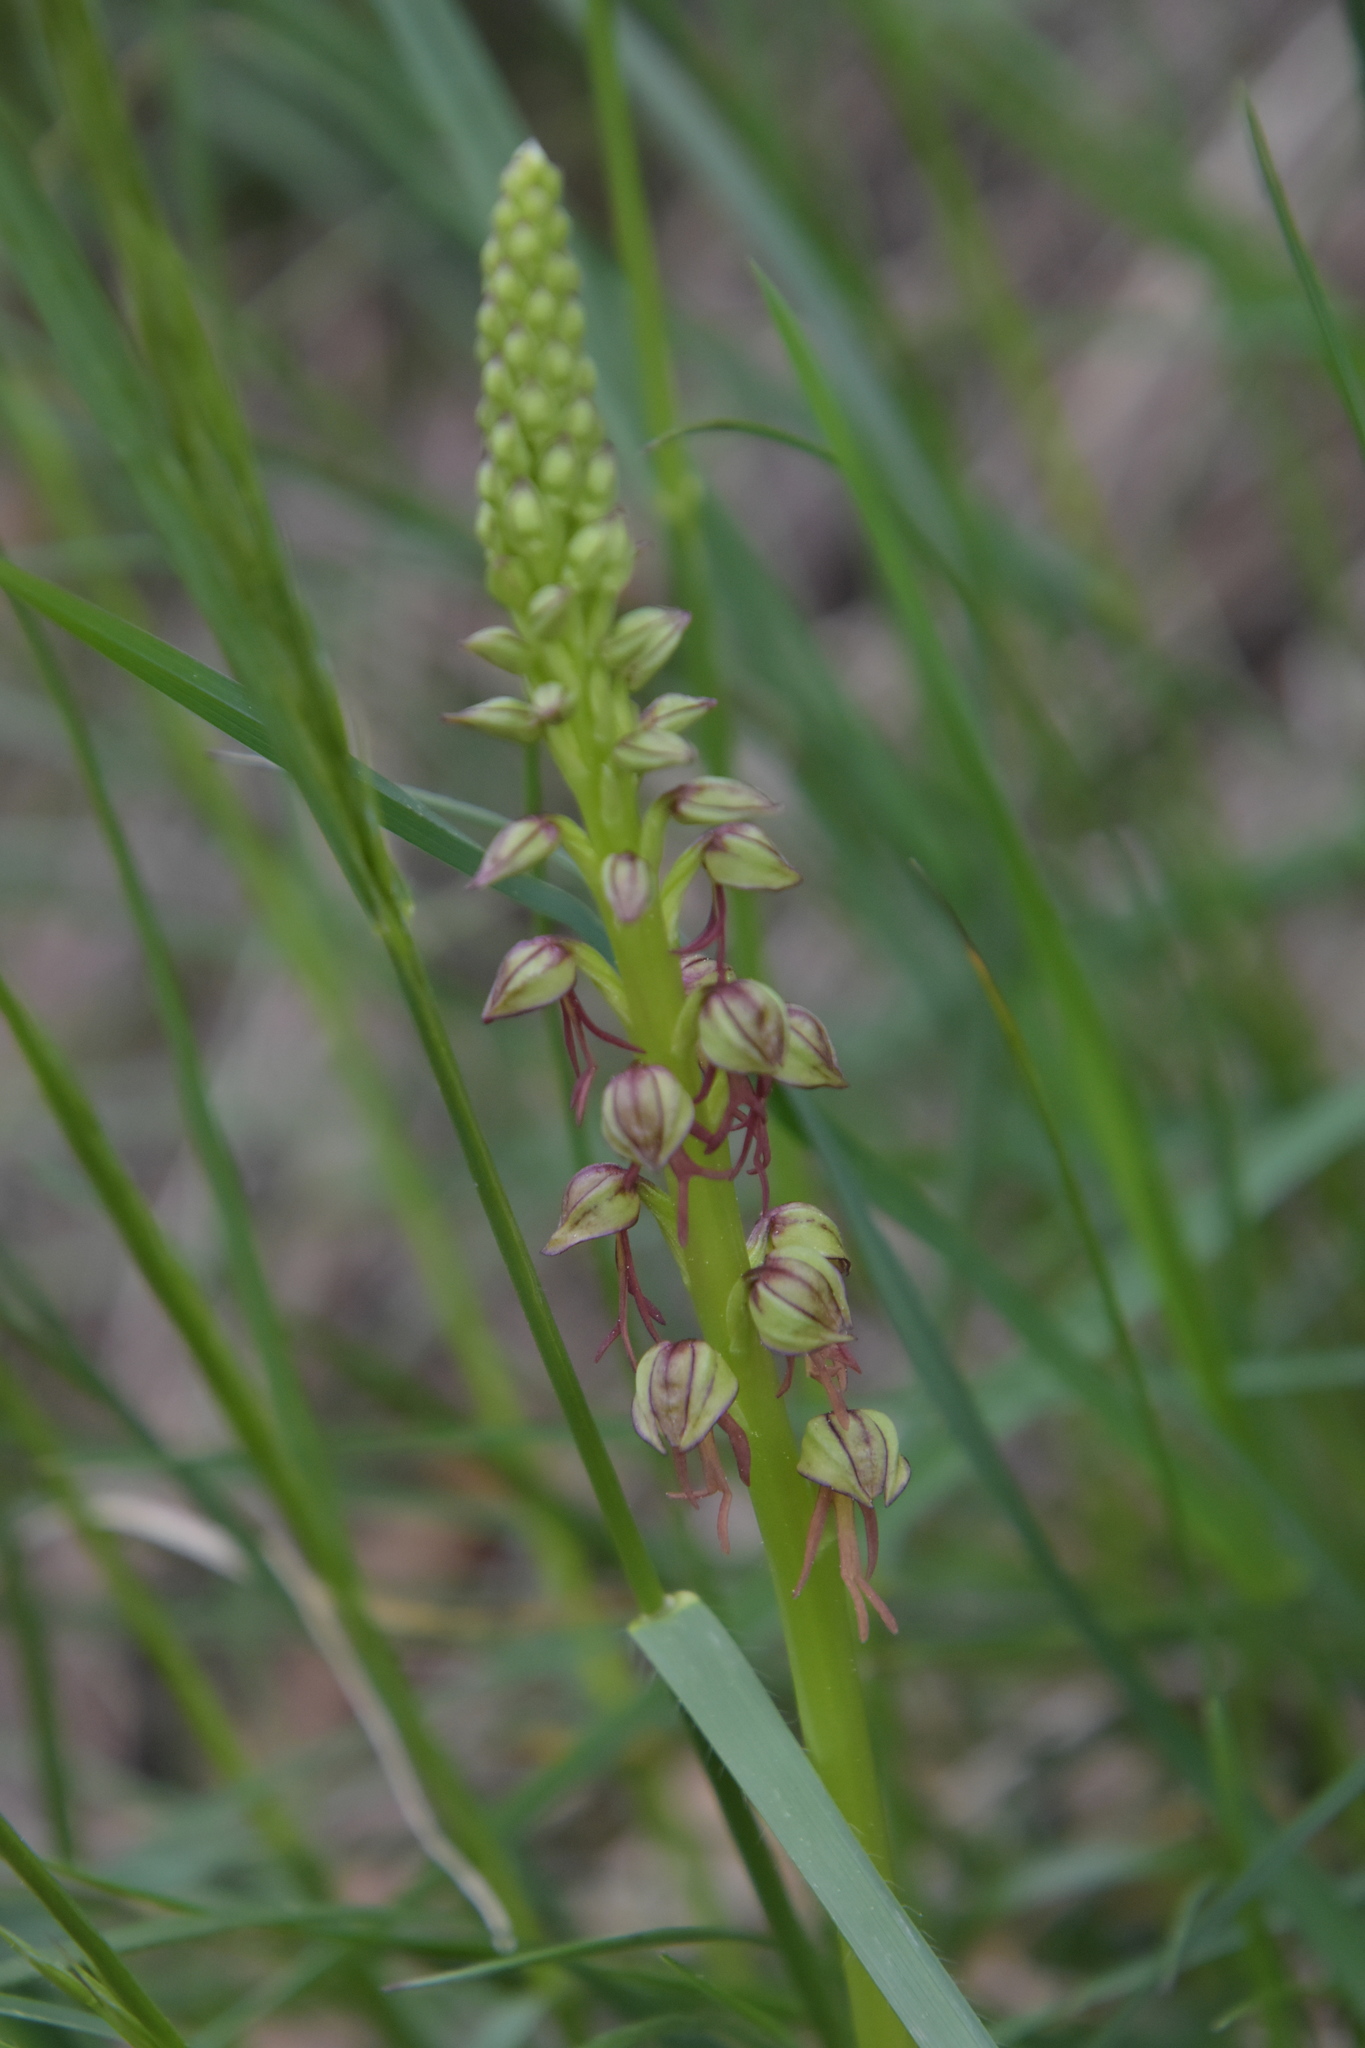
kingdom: Plantae
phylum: Tracheophyta
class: Liliopsida
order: Asparagales
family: Orchidaceae
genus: Orchis
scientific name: Orchis anthropophora
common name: Man orchid
